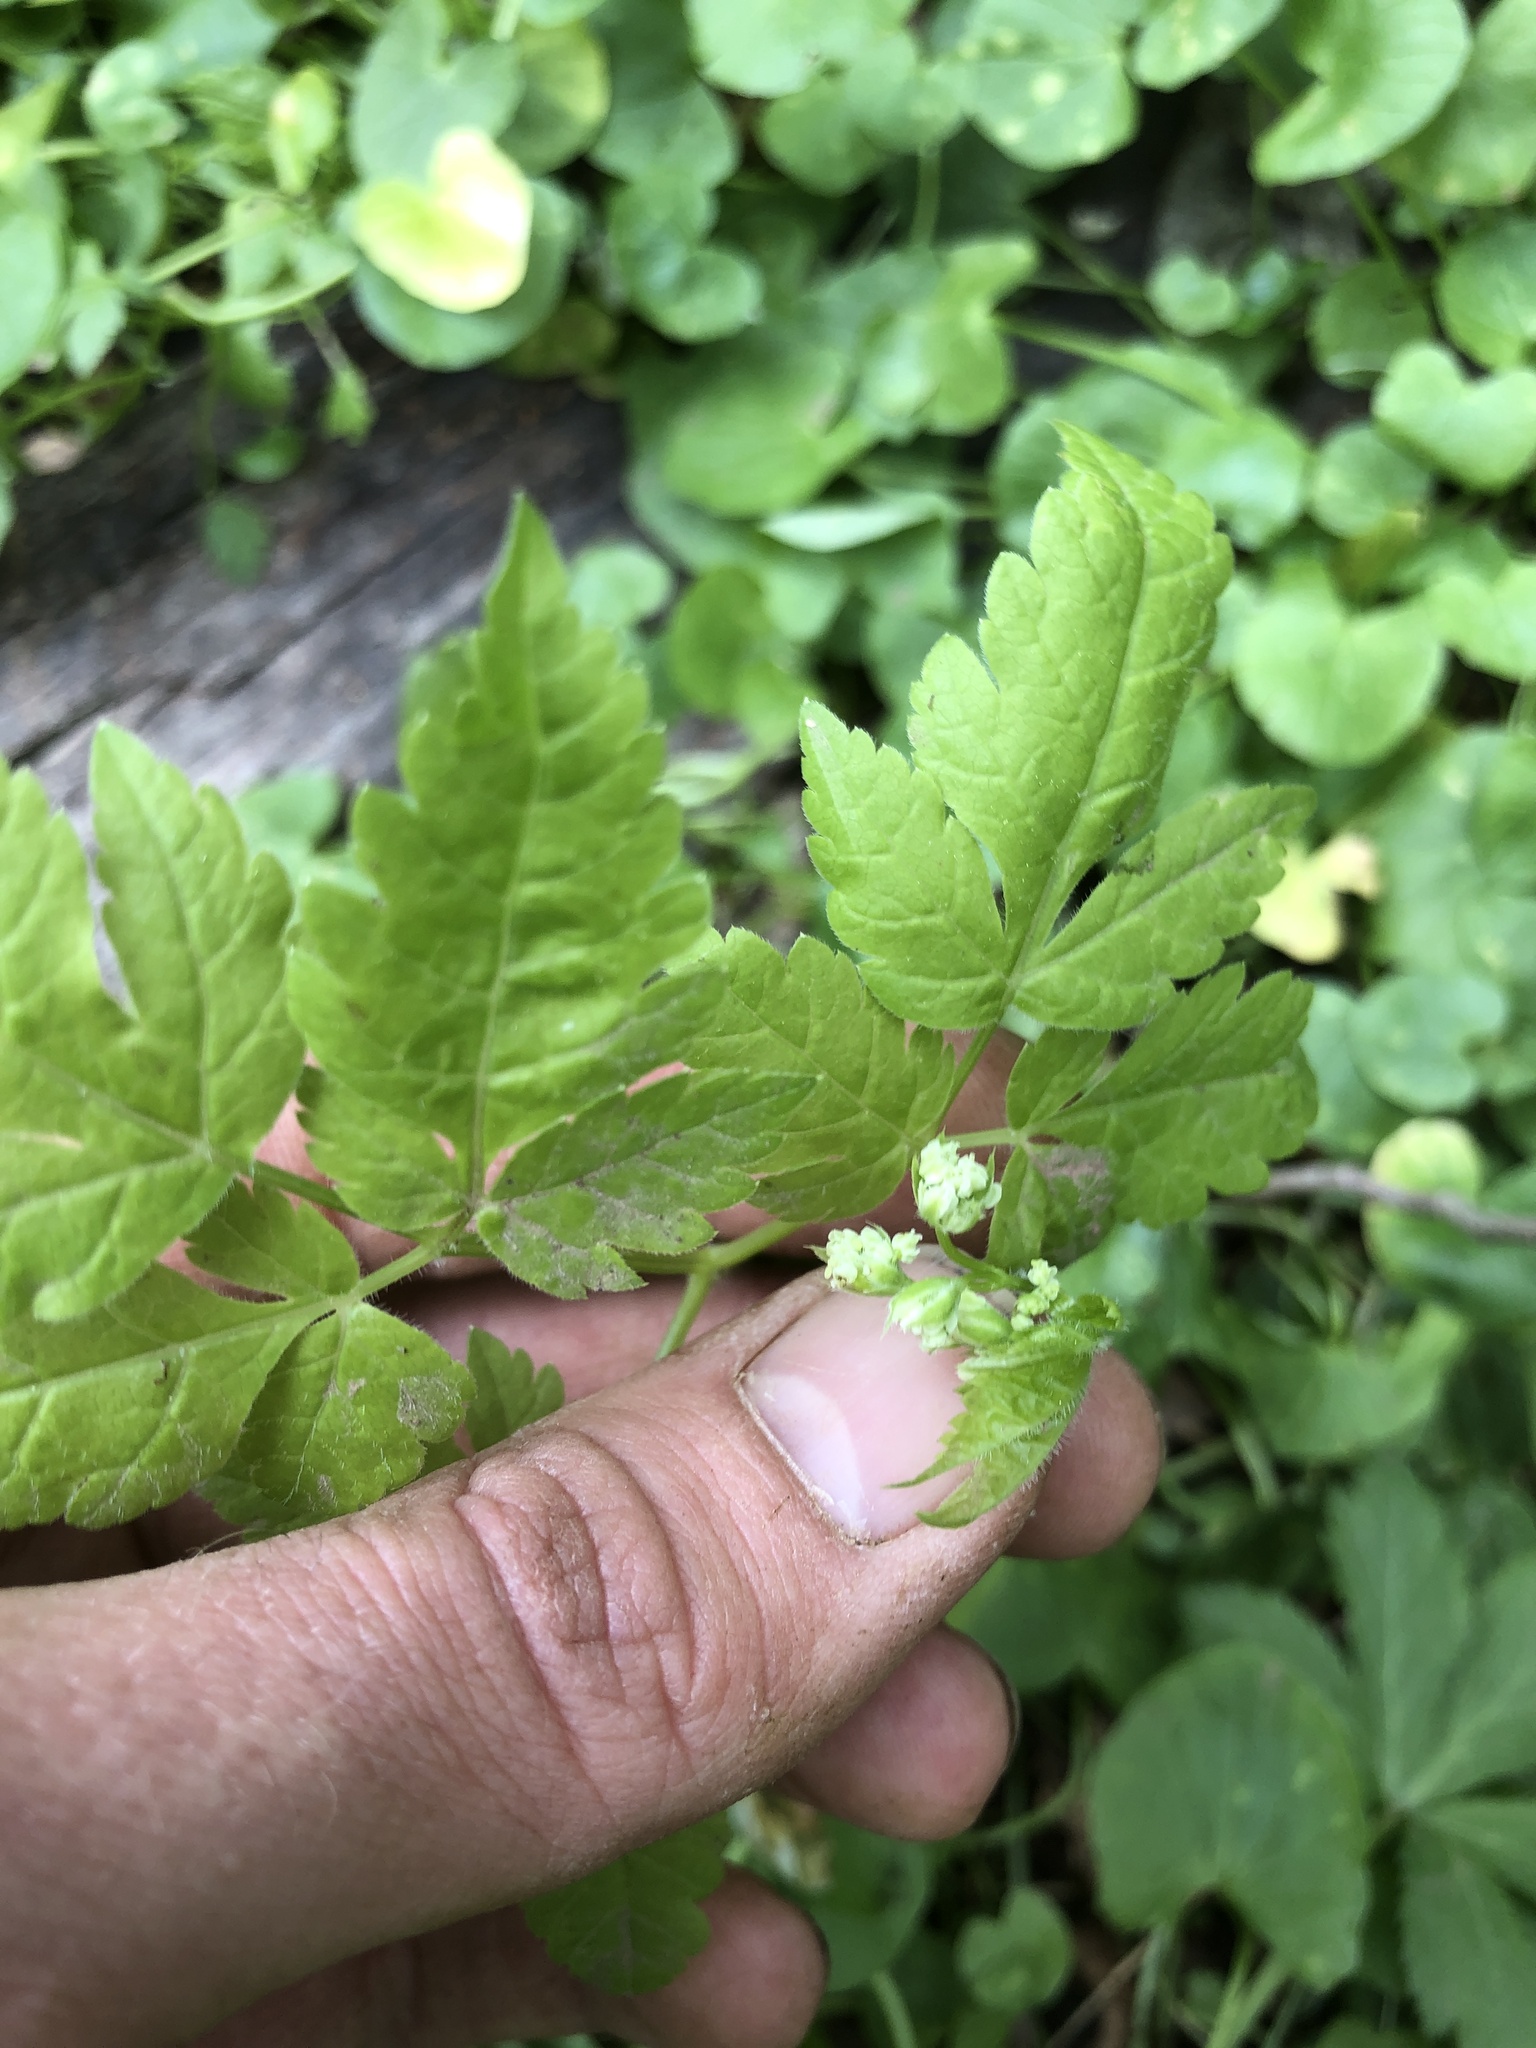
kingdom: Plantae
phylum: Tracheophyta
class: Magnoliopsida
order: Apiales
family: Apiaceae
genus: Osmorhiza
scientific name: Osmorhiza longistylis
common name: Smooth sweet cicely
